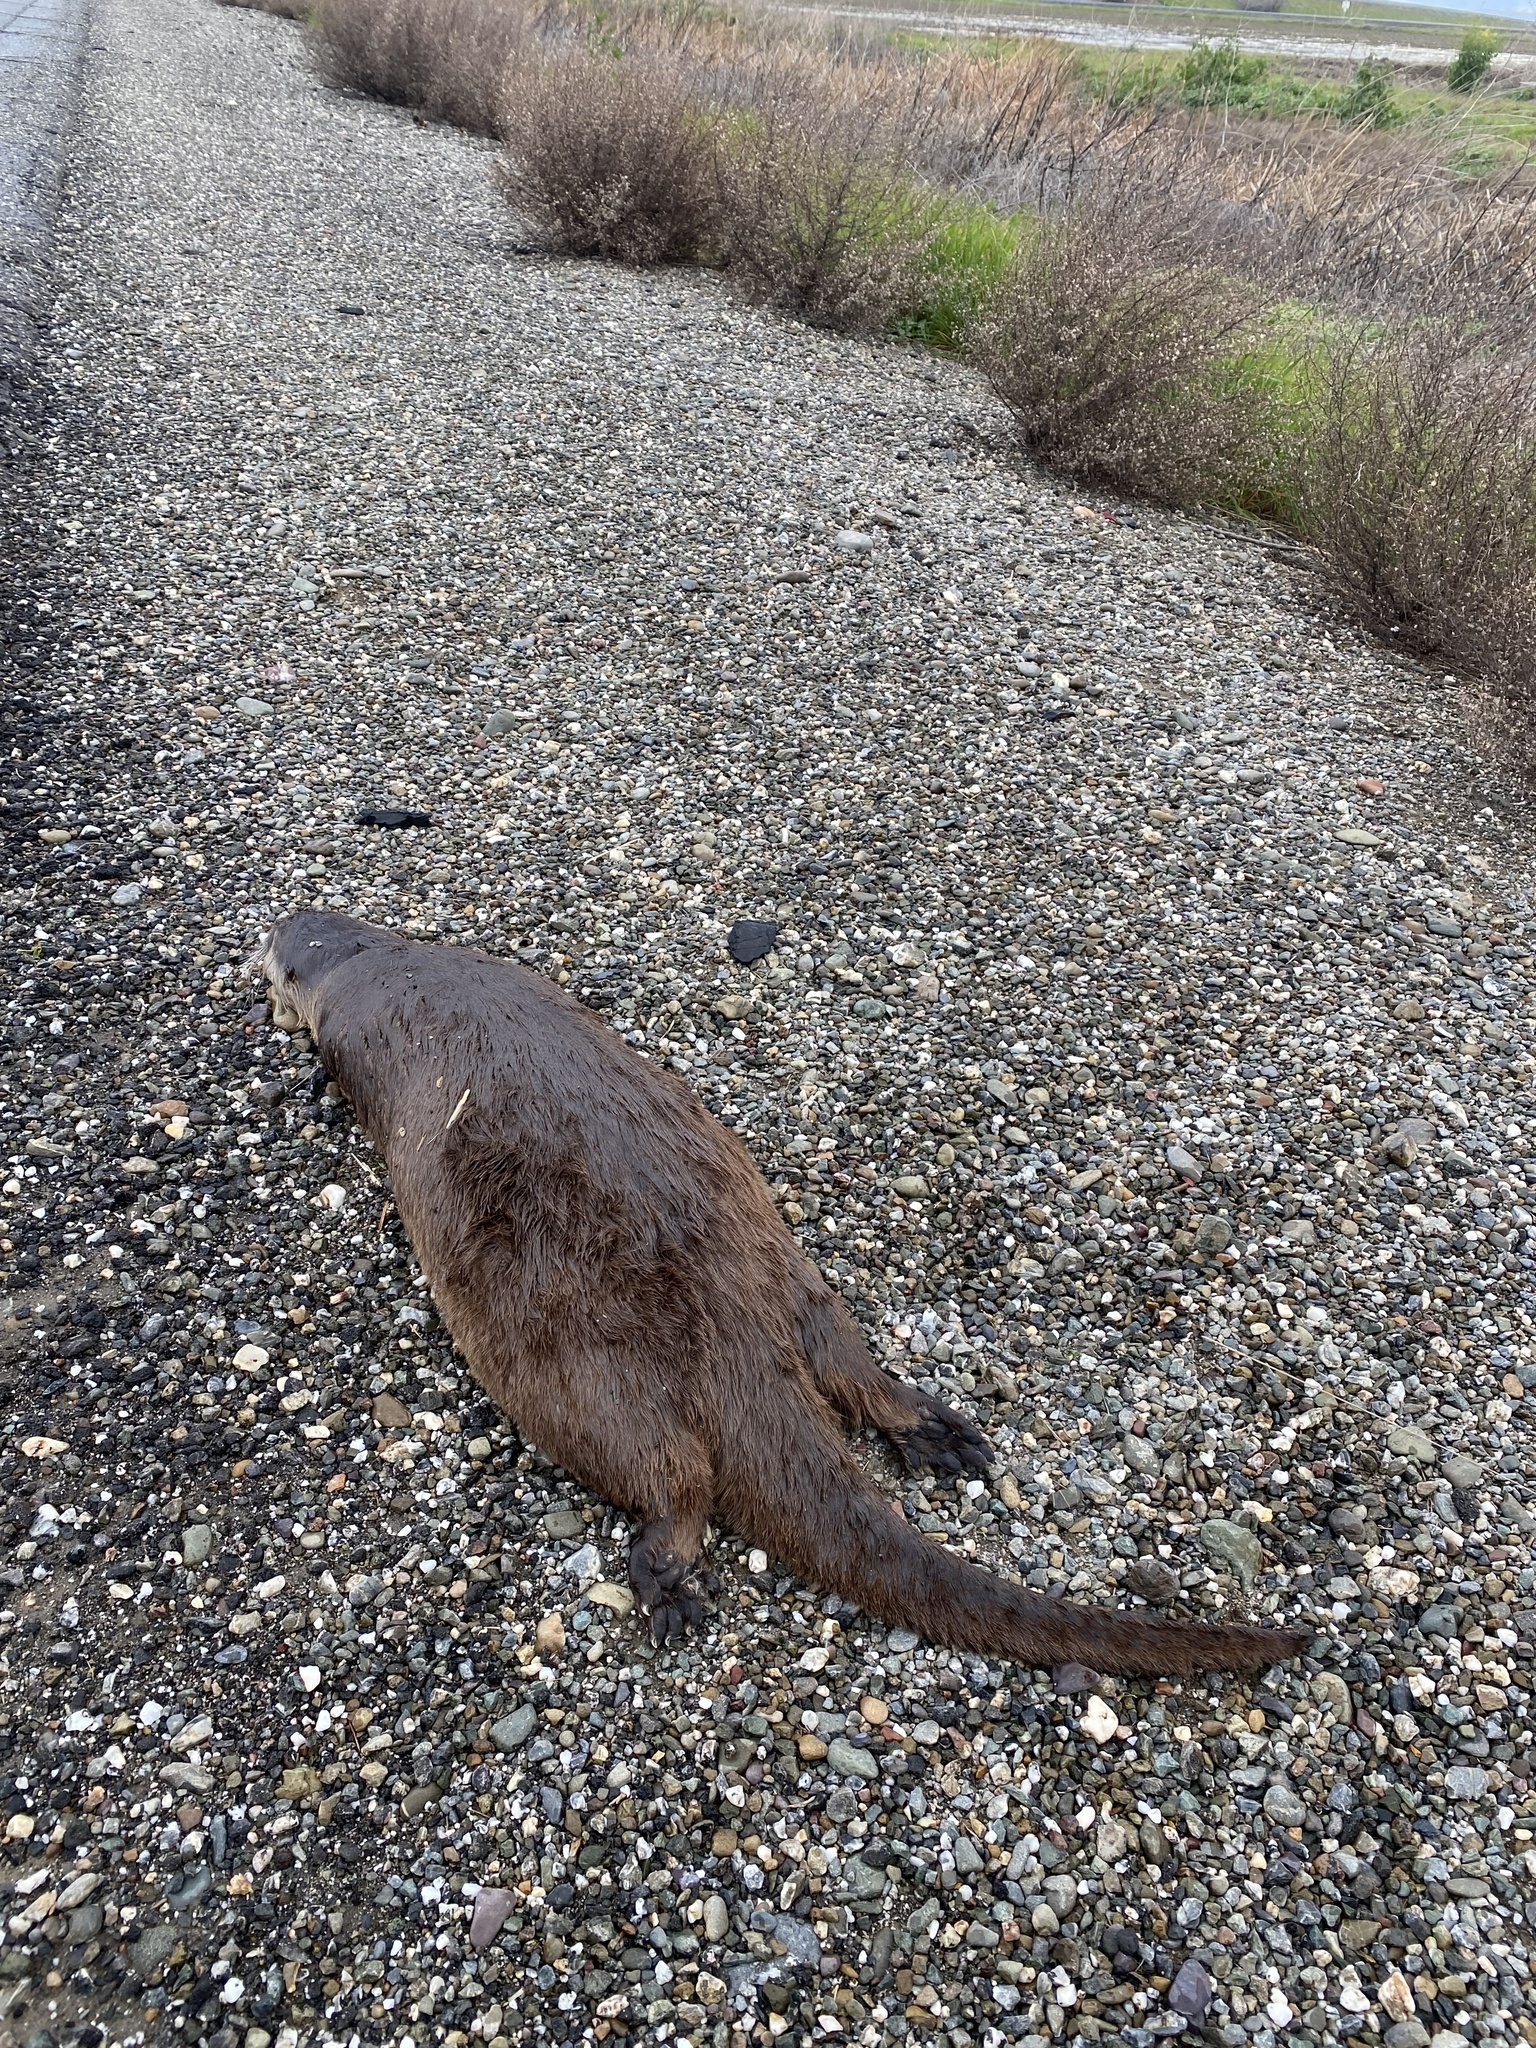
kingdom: Animalia
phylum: Chordata
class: Mammalia
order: Carnivora
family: Mustelidae
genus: Lontra
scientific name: Lontra canadensis
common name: North american river otter
